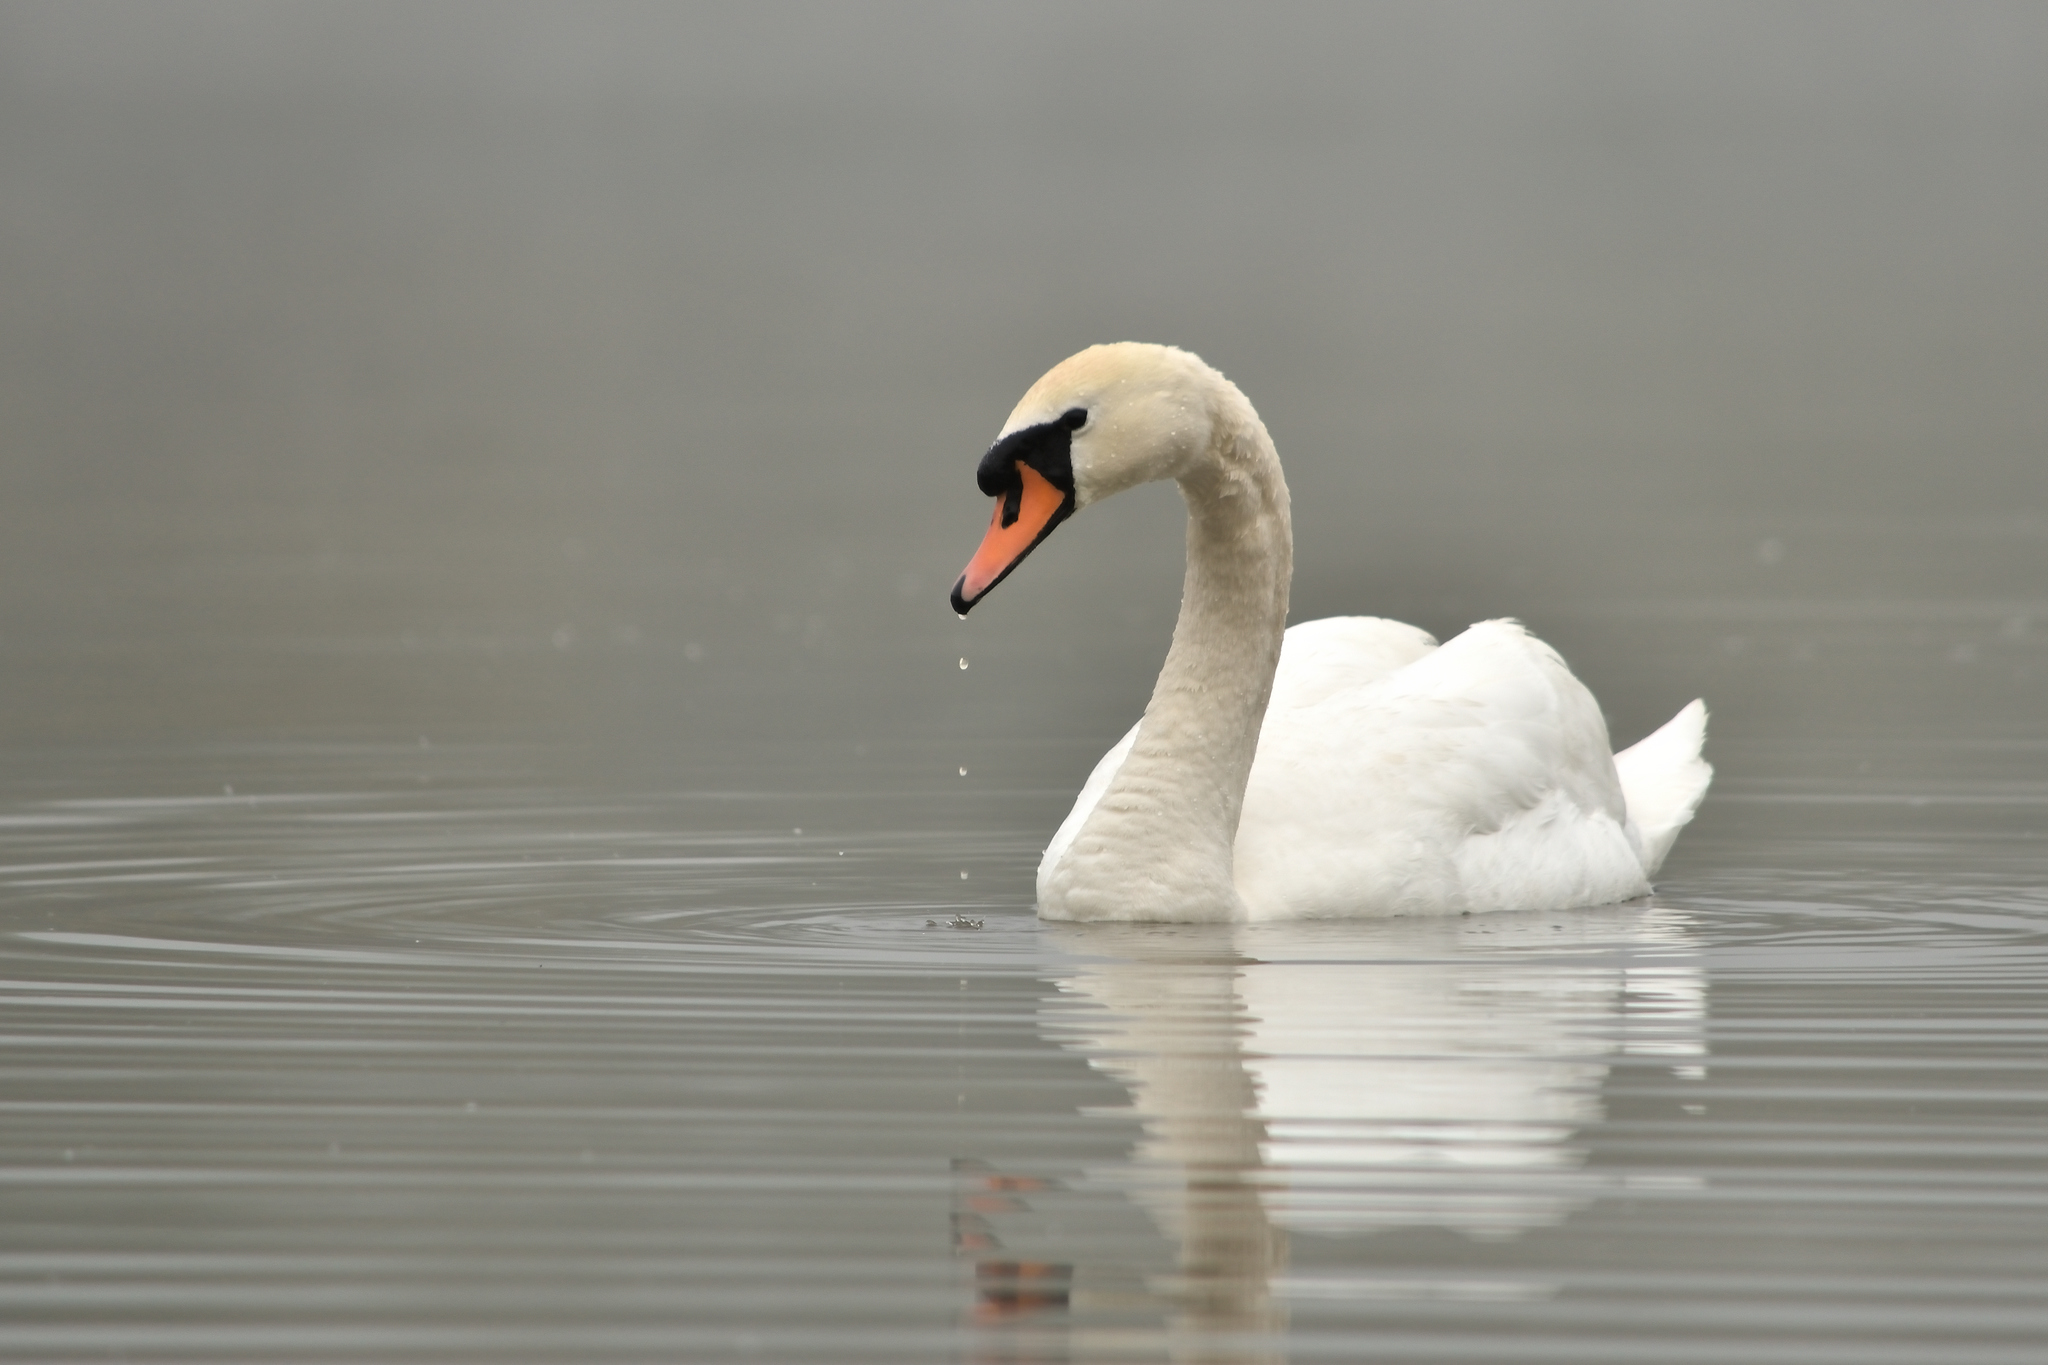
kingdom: Animalia
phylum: Chordata
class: Aves
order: Anseriformes
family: Anatidae
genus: Cygnus
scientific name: Cygnus olor
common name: Mute swan
